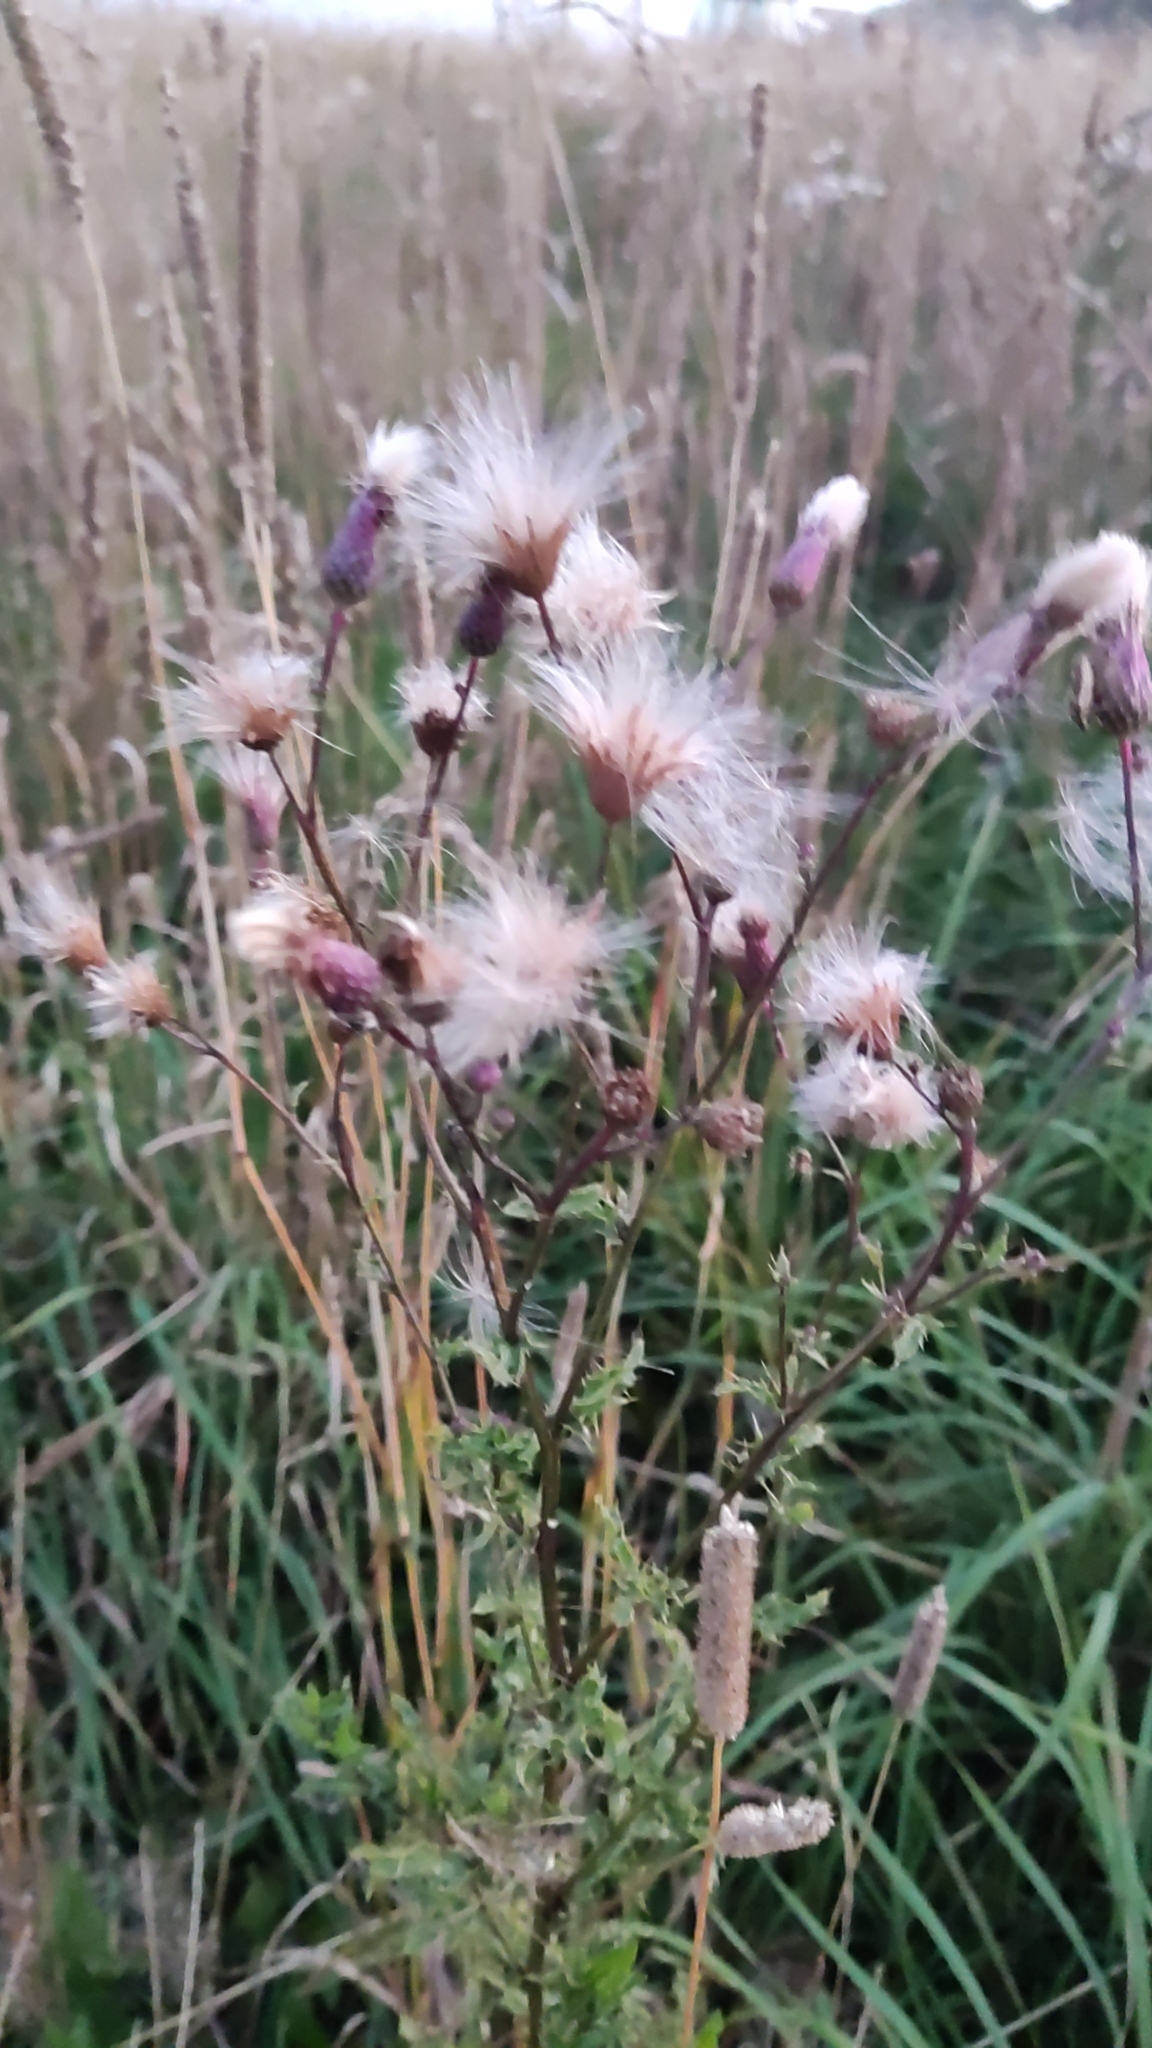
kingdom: Plantae
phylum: Tracheophyta
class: Magnoliopsida
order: Asterales
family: Asteraceae
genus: Cirsium
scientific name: Cirsium arvense
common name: Creeping thistle
